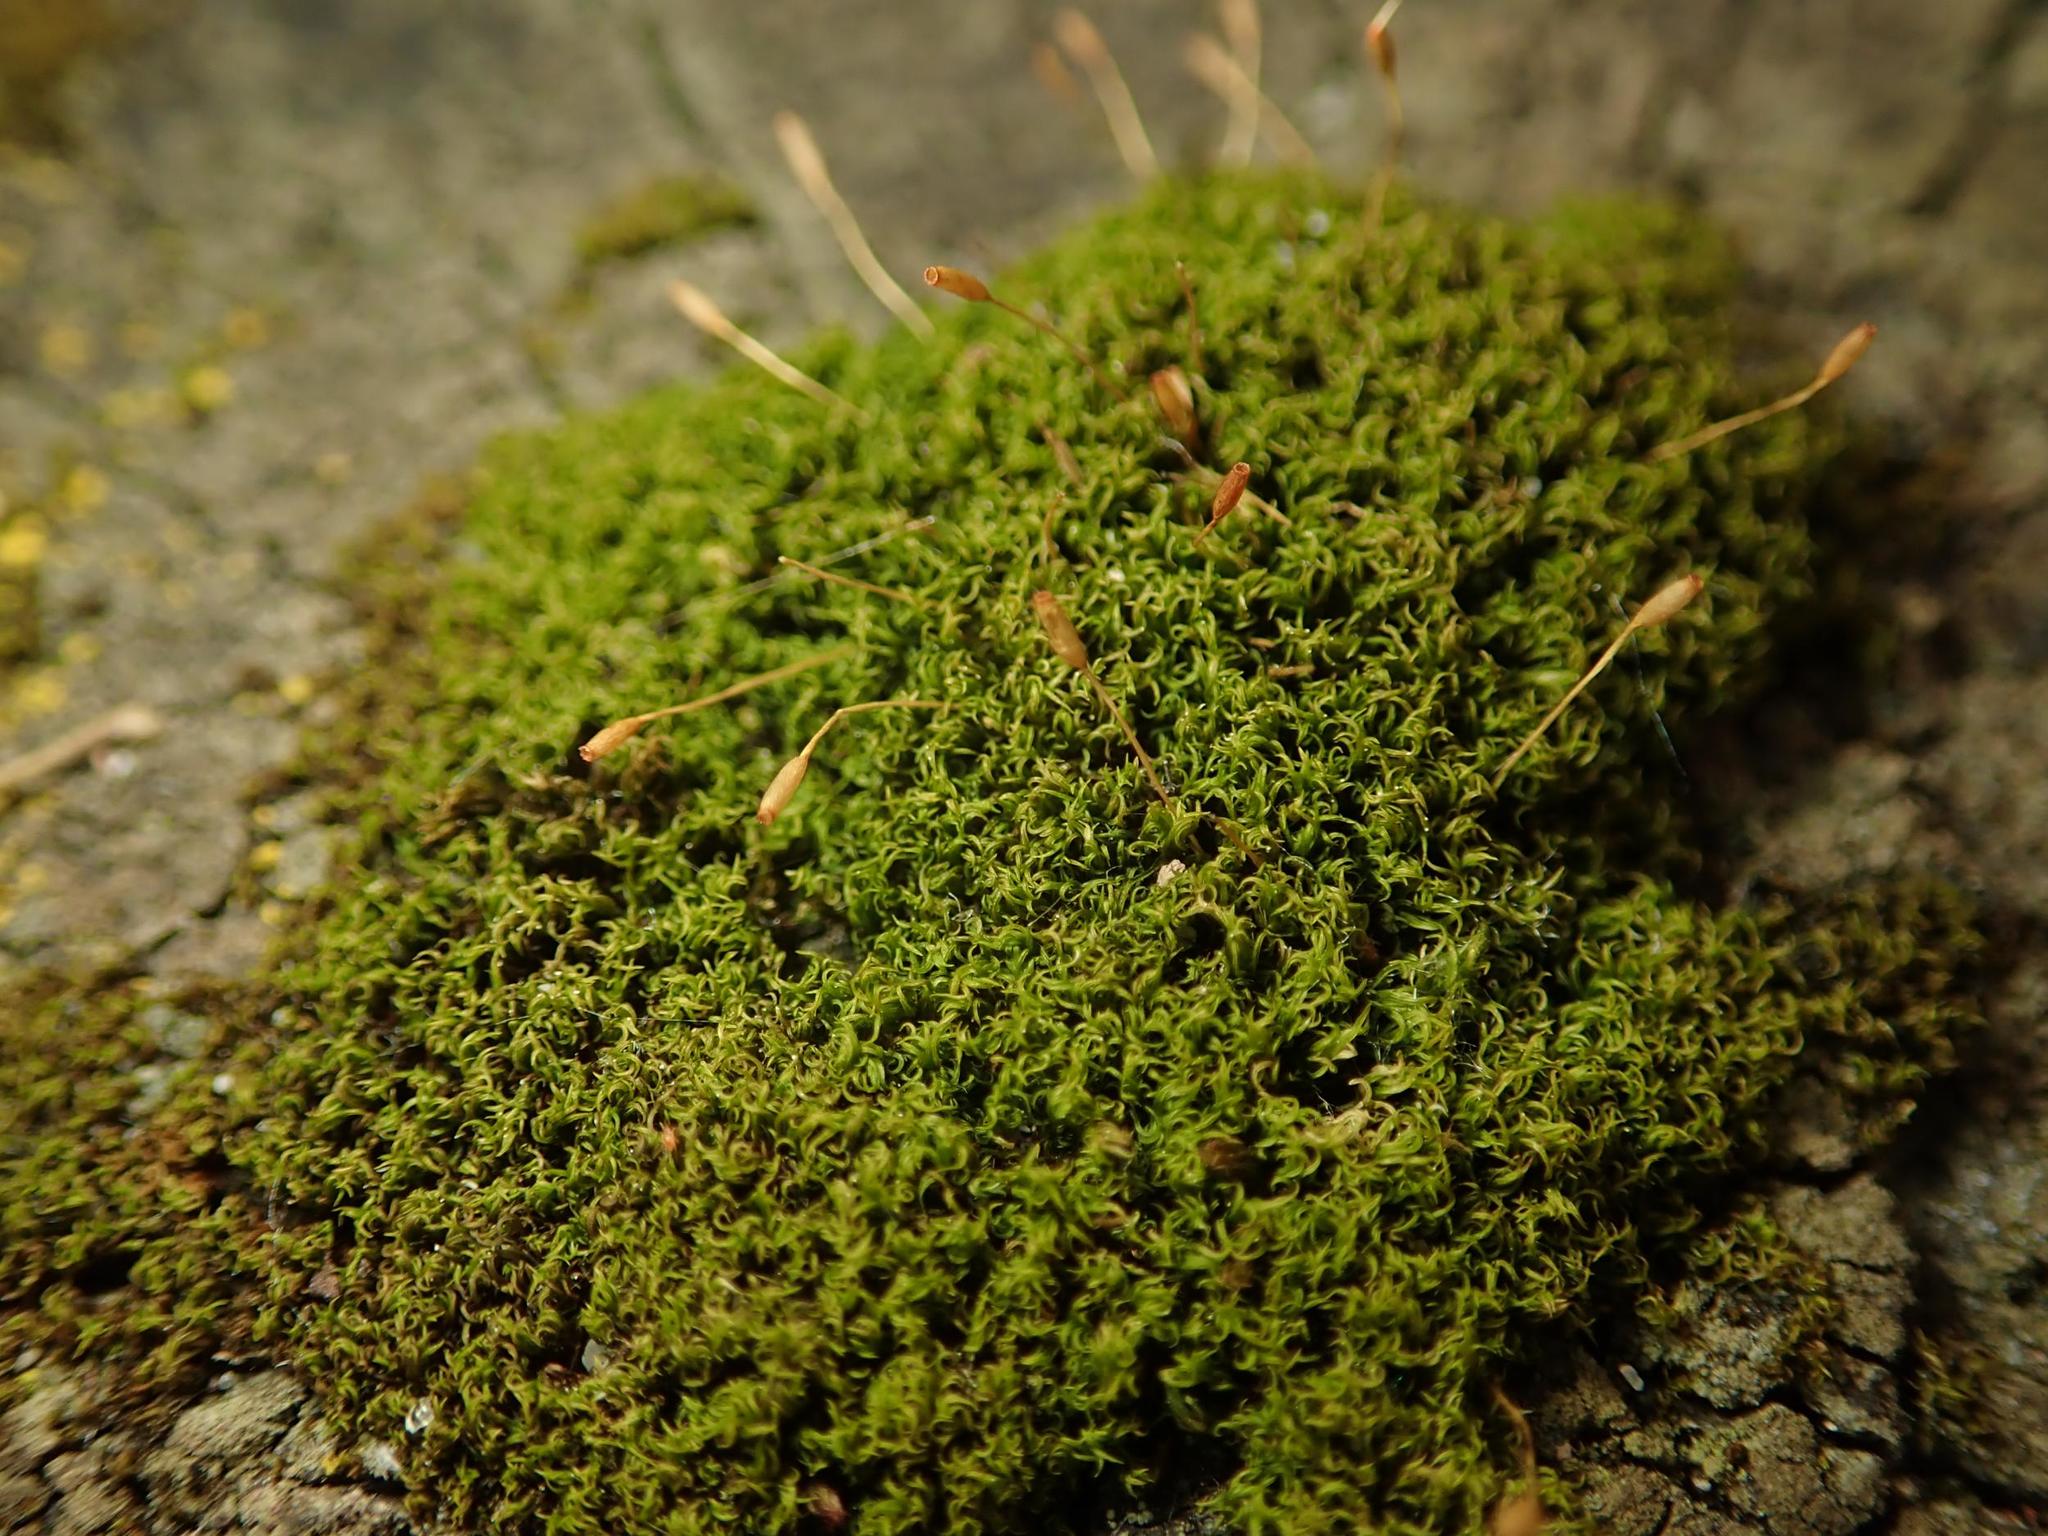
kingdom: Plantae
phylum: Bryophyta
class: Bryopsida
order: Dicranales
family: Rhabdoweisiaceae
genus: Dicranoweisia
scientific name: Dicranoweisia cirrata
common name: Common pincushion
